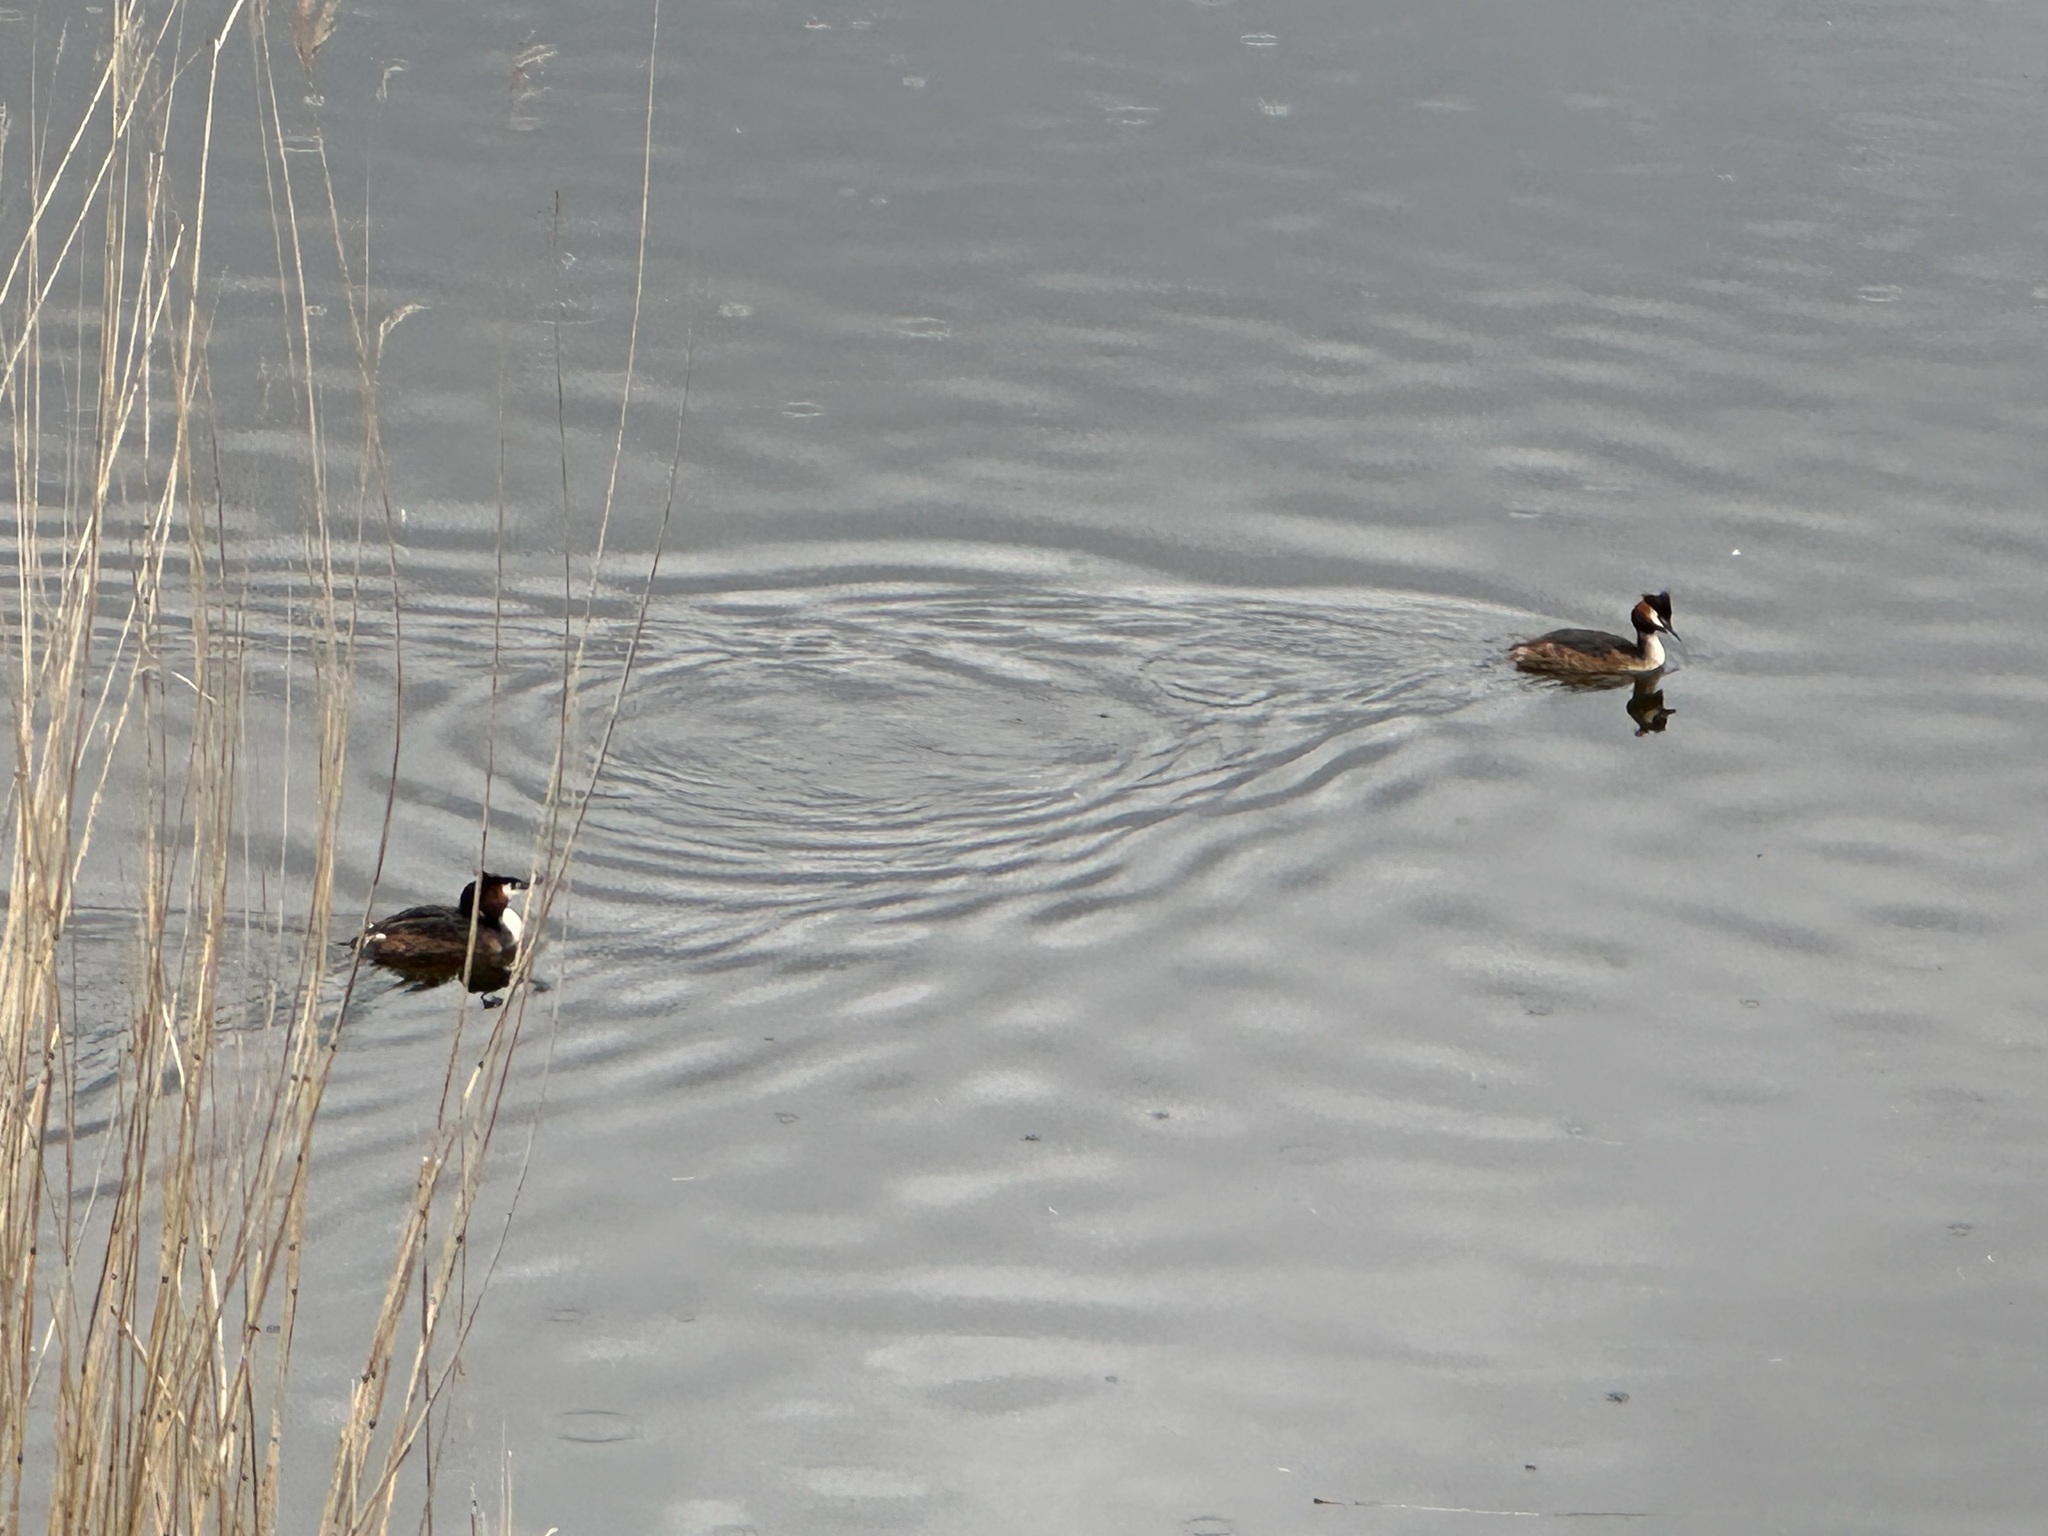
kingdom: Animalia
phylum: Chordata
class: Aves
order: Podicipediformes
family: Podicipedidae
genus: Podiceps
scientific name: Podiceps cristatus
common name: Great crested grebe
